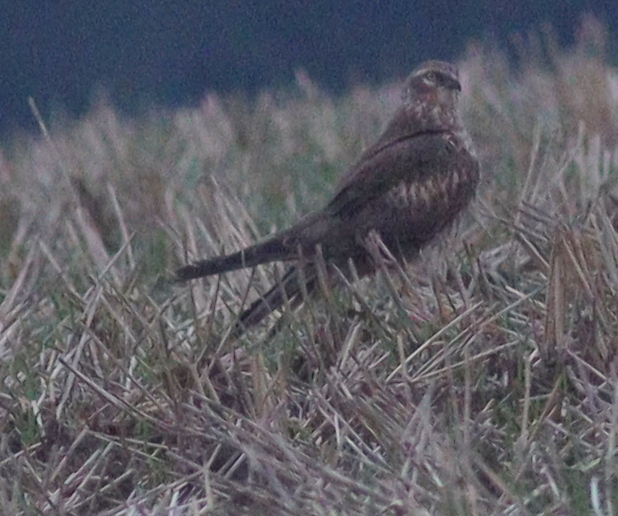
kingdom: Animalia
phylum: Chordata
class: Aves
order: Accipitriformes
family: Accipitridae
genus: Circus
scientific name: Circus pygargus
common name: Montagu's harrier
